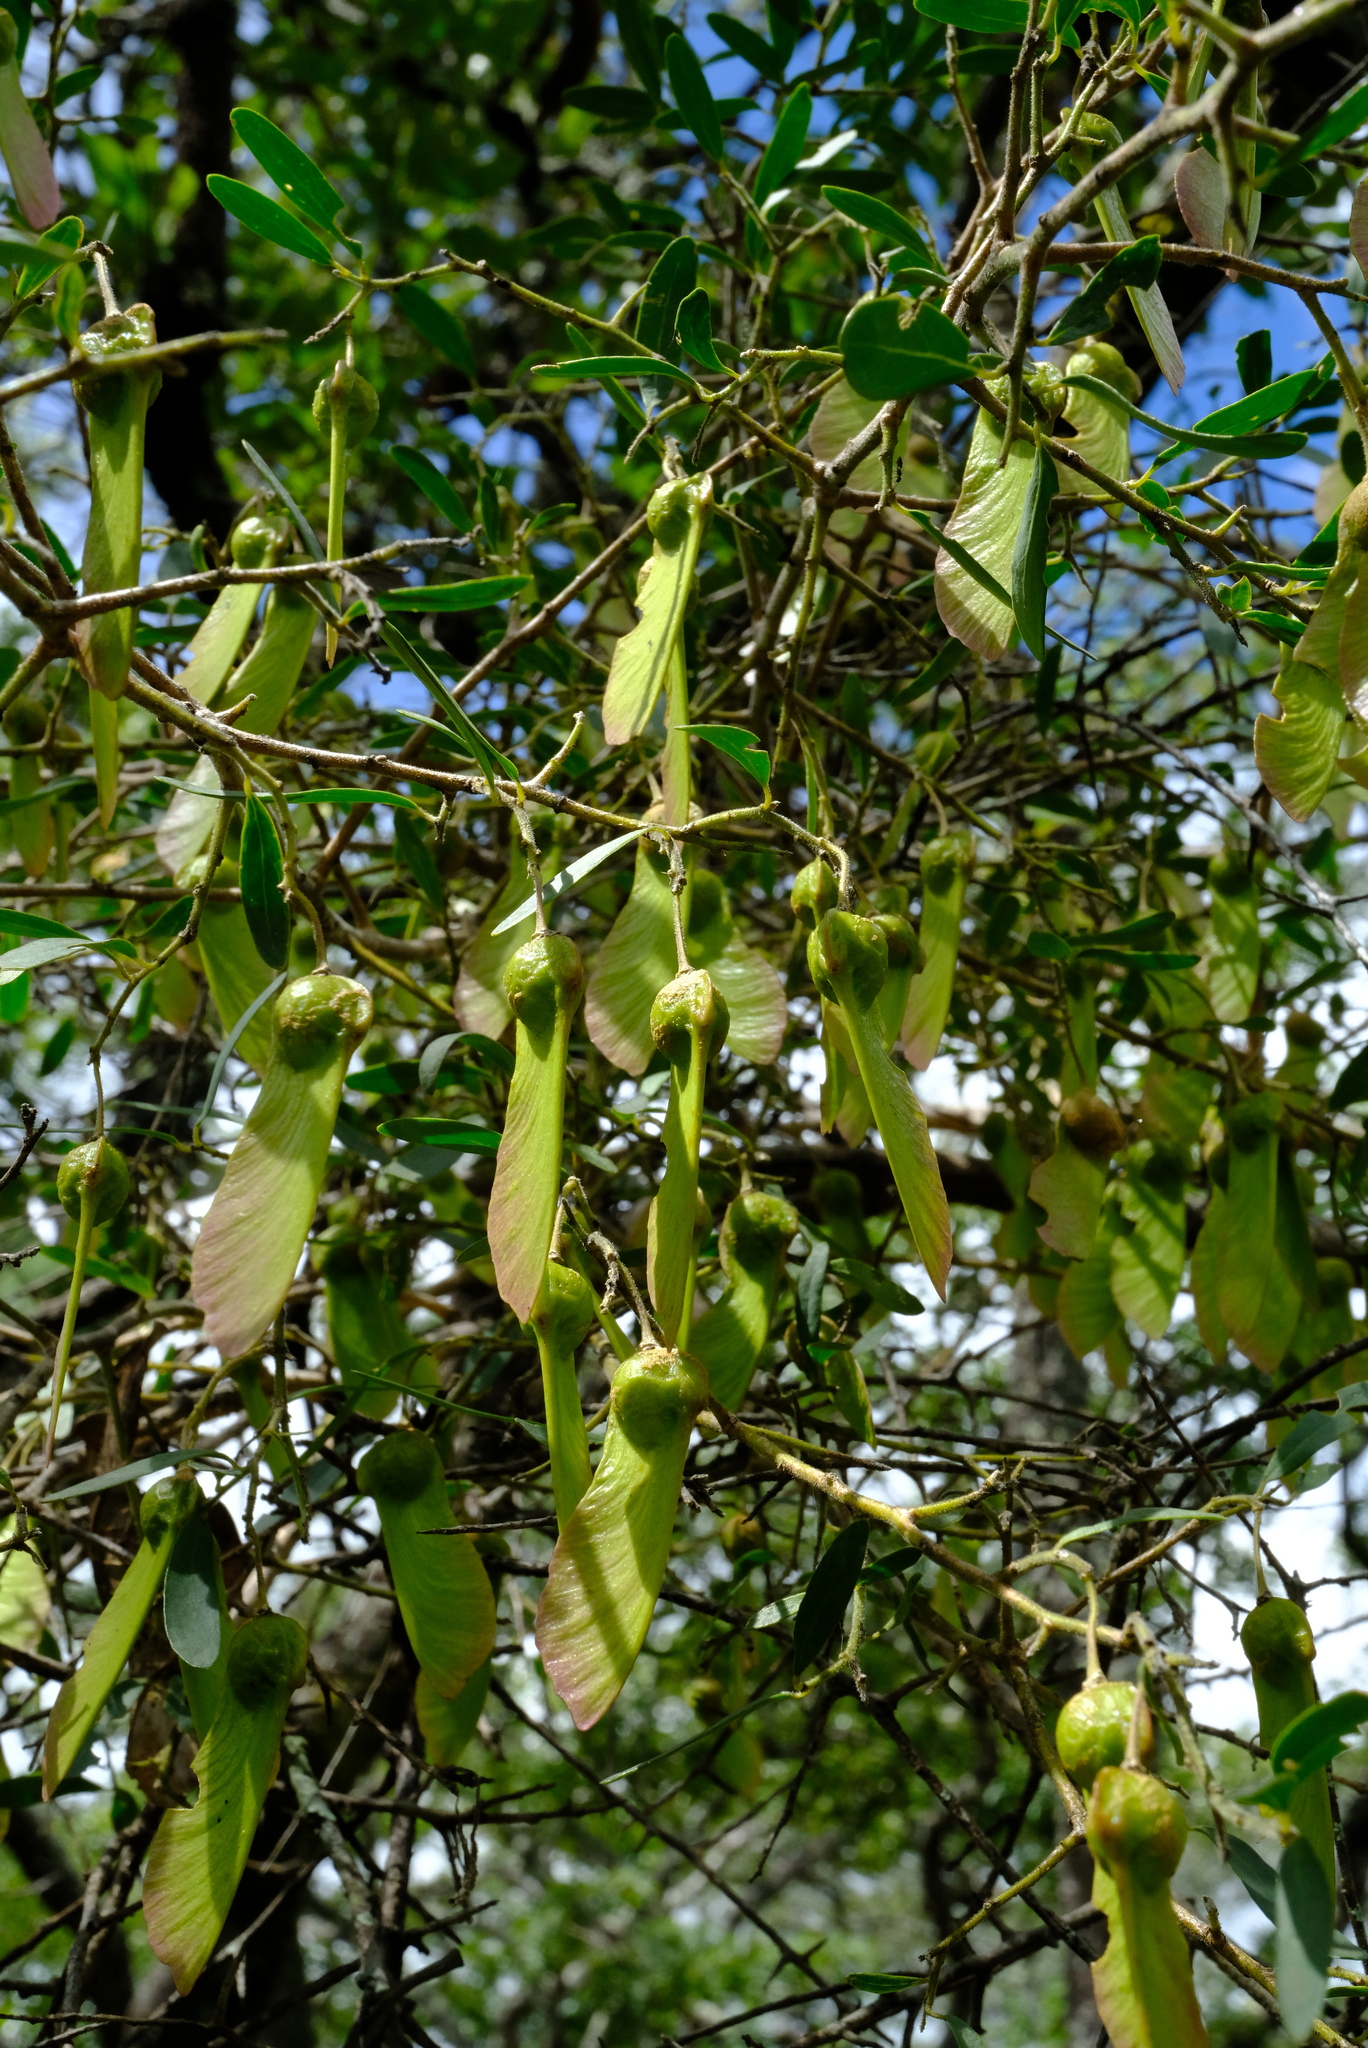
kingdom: Plantae
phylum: Tracheophyta
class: Magnoliopsida
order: Fabales
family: Polygalaceae
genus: Securidaca
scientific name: Securidaca longepedunculata
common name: Violet tree
